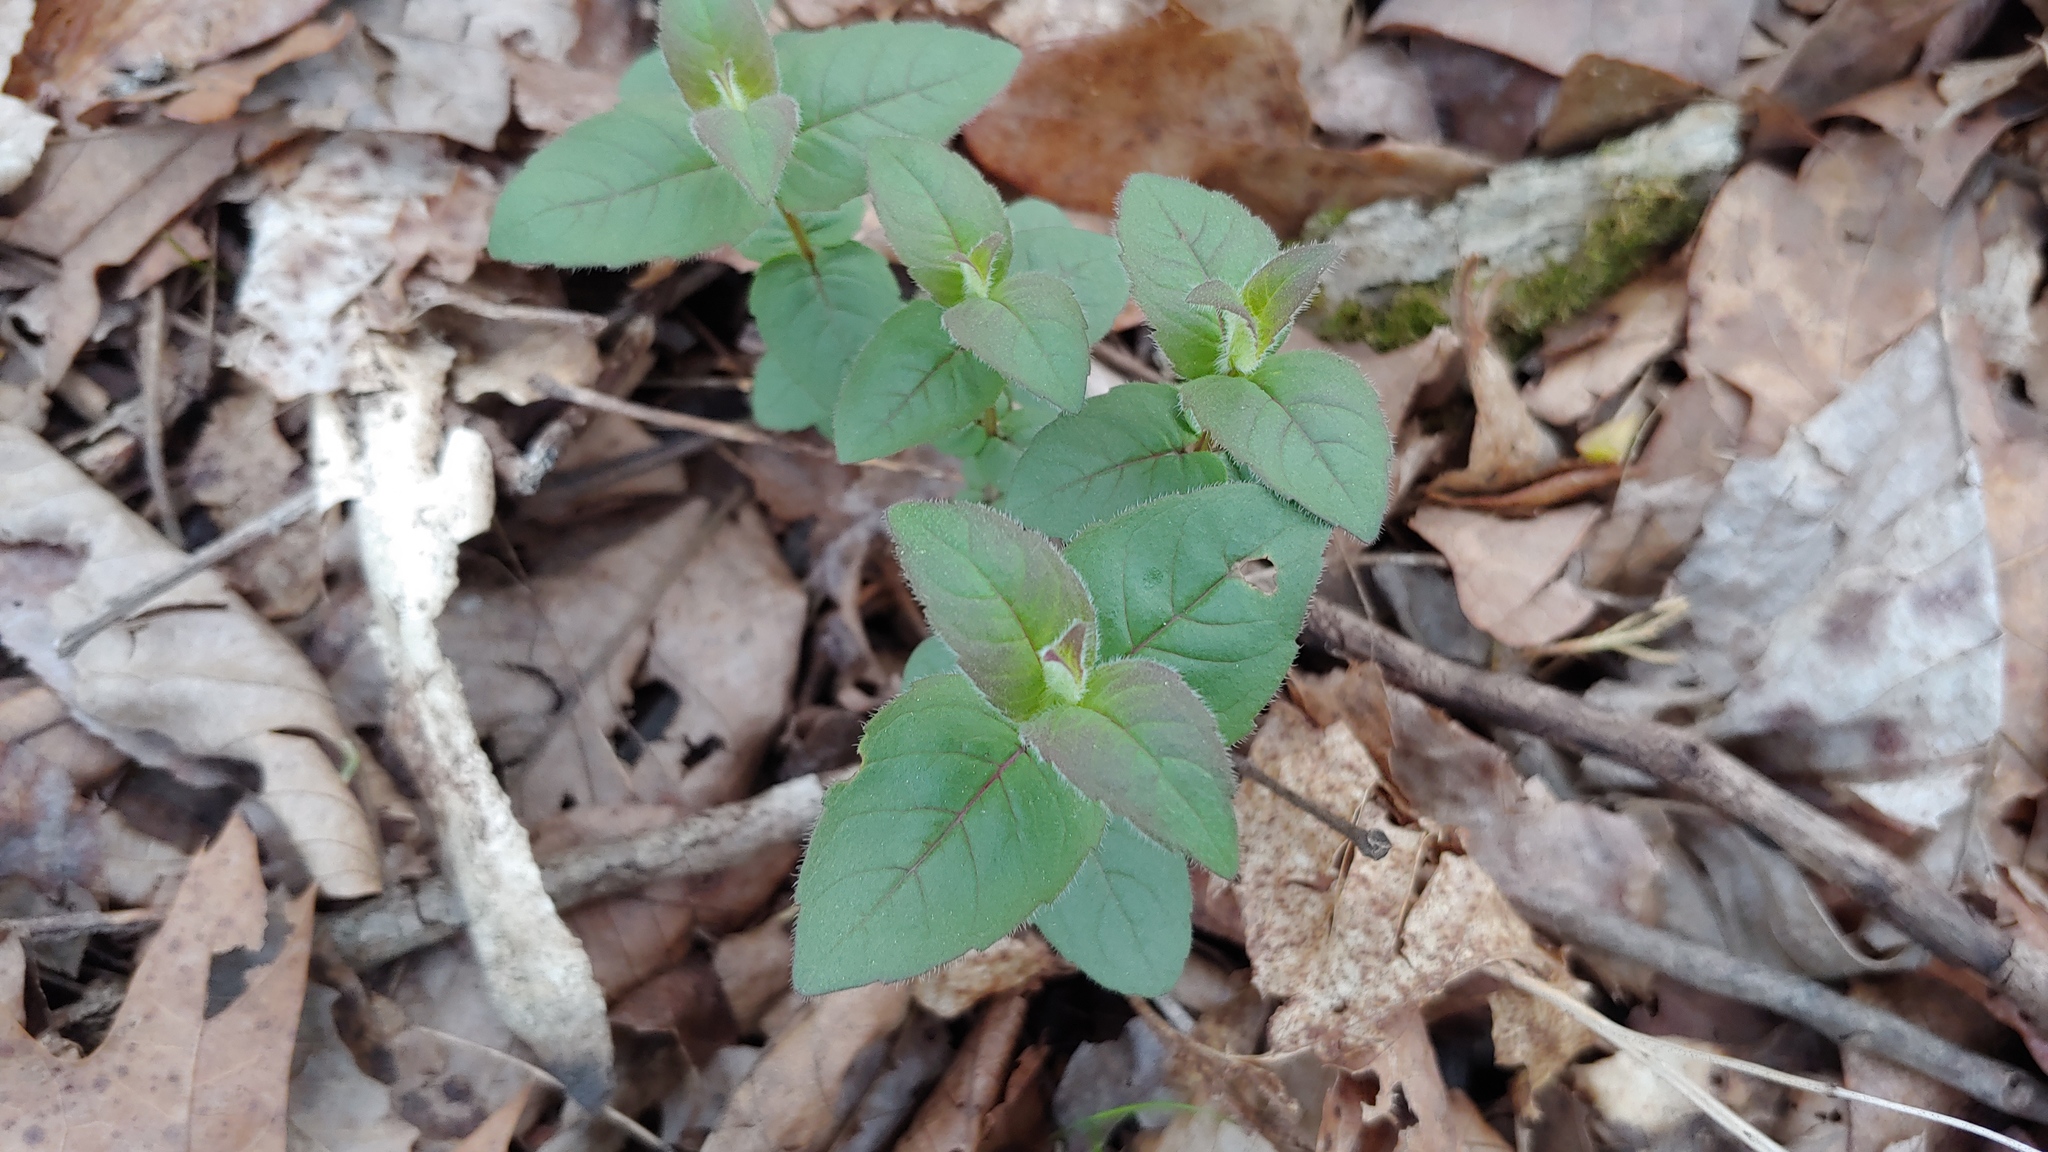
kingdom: Plantae
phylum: Tracheophyta
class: Magnoliopsida
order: Lamiales
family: Lamiaceae
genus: Monarda
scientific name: Monarda bradburiana
